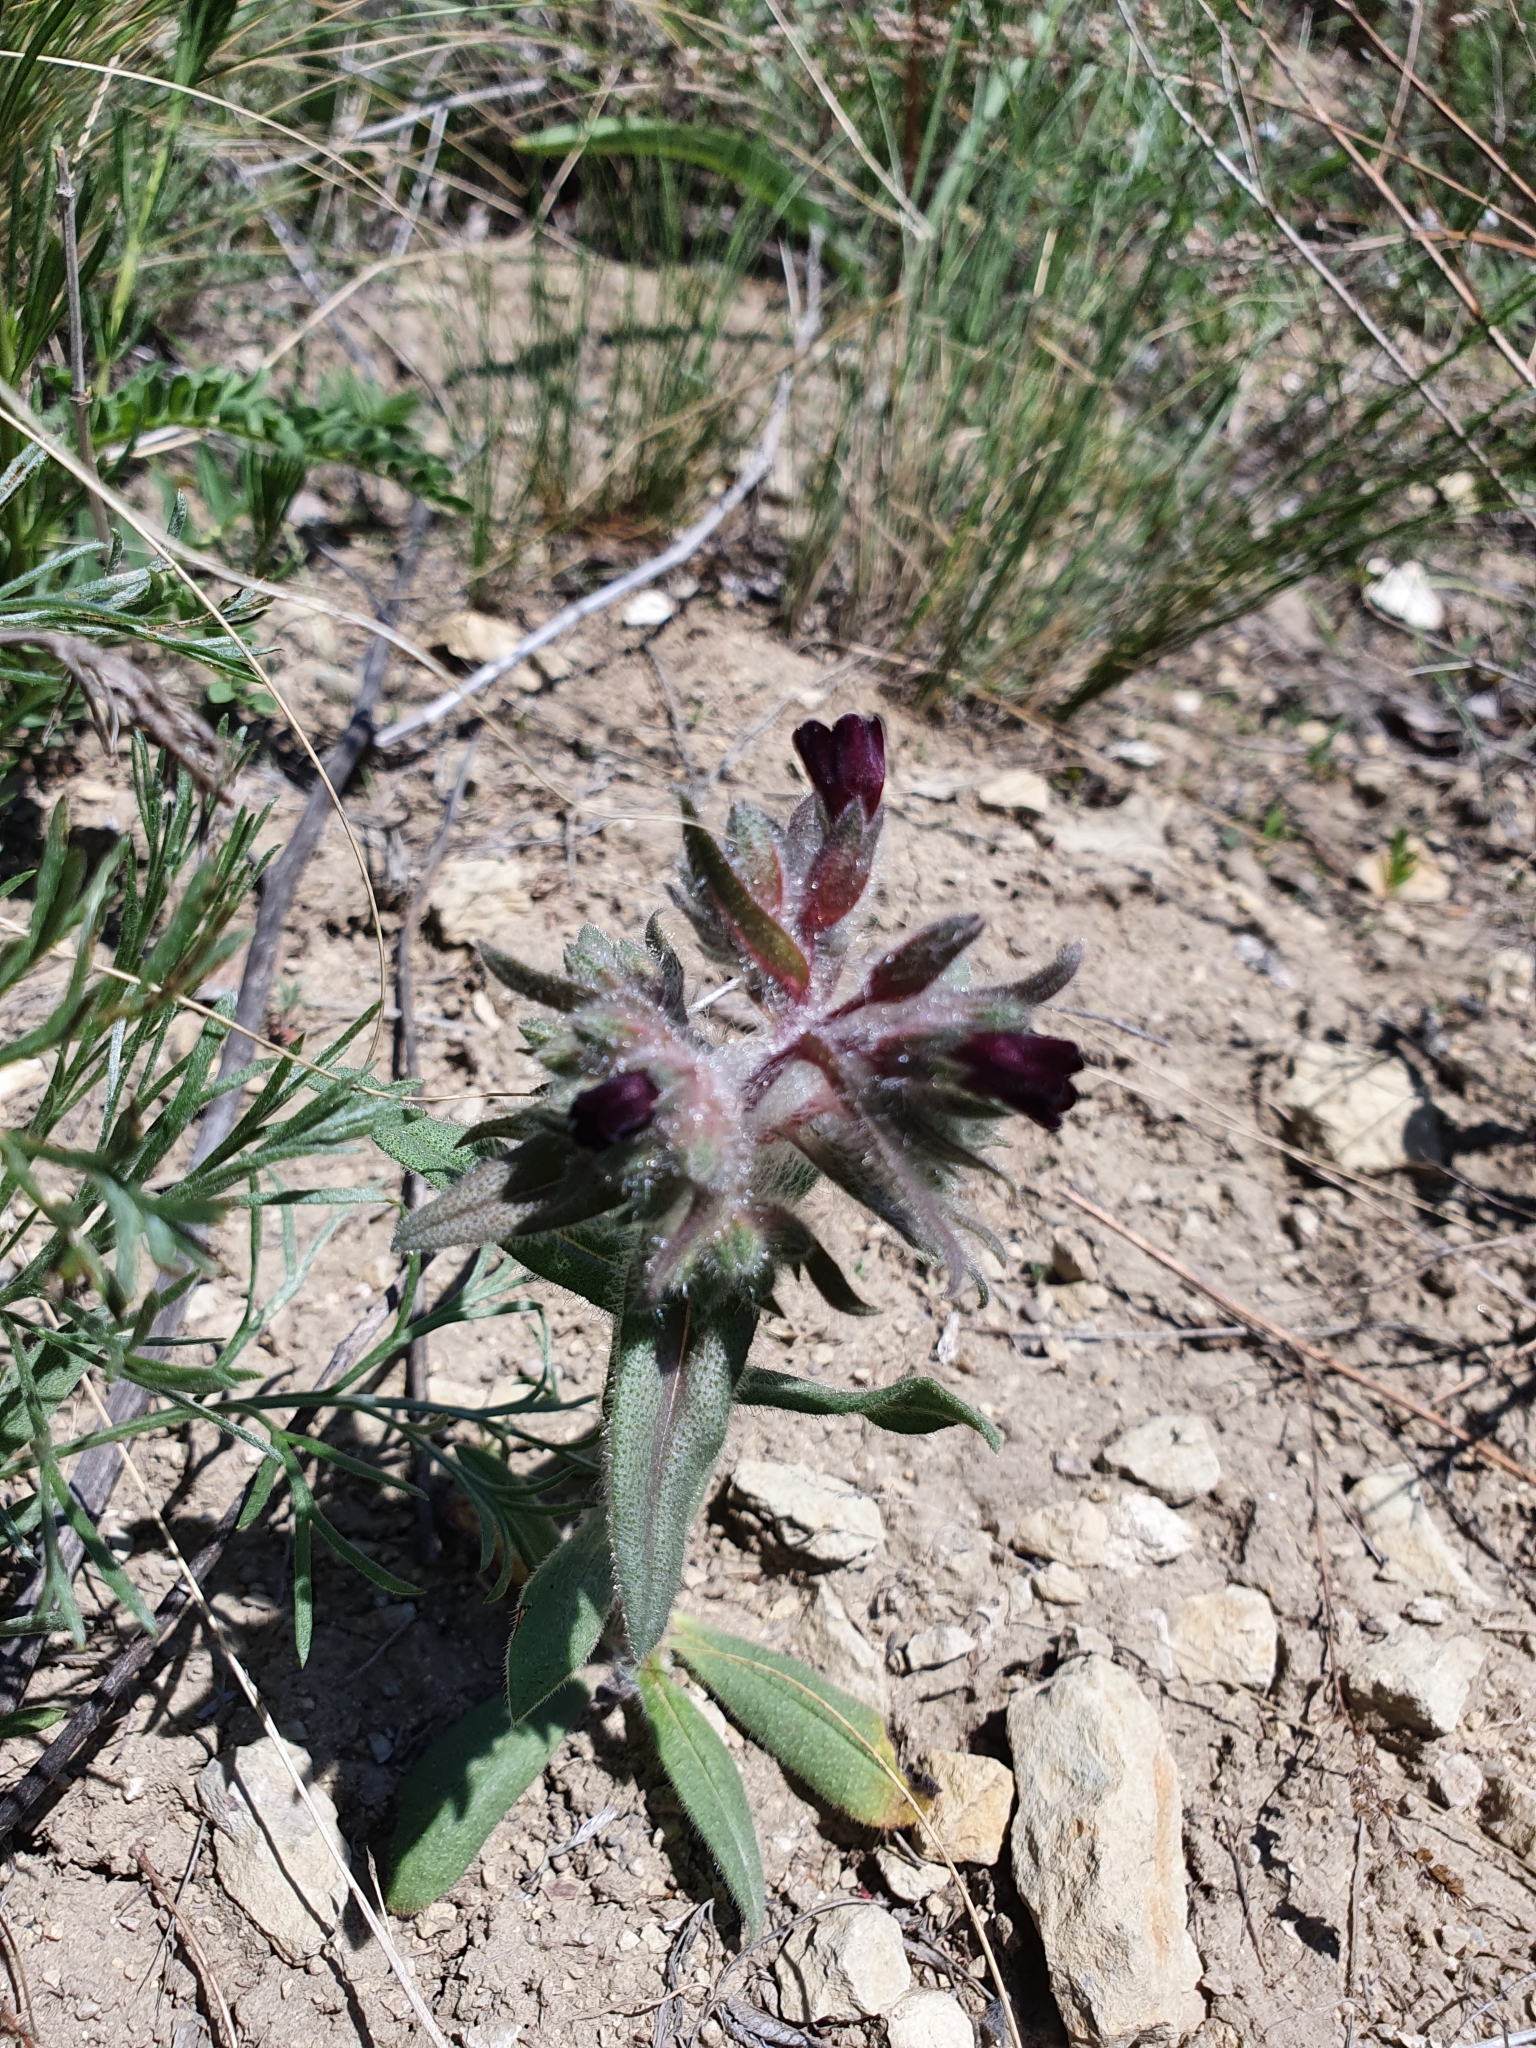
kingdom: Plantae
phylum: Tracheophyta
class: Magnoliopsida
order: Boraginales
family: Boraginaceae
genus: Nonea
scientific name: Nonea pulla
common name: Brown nonea
